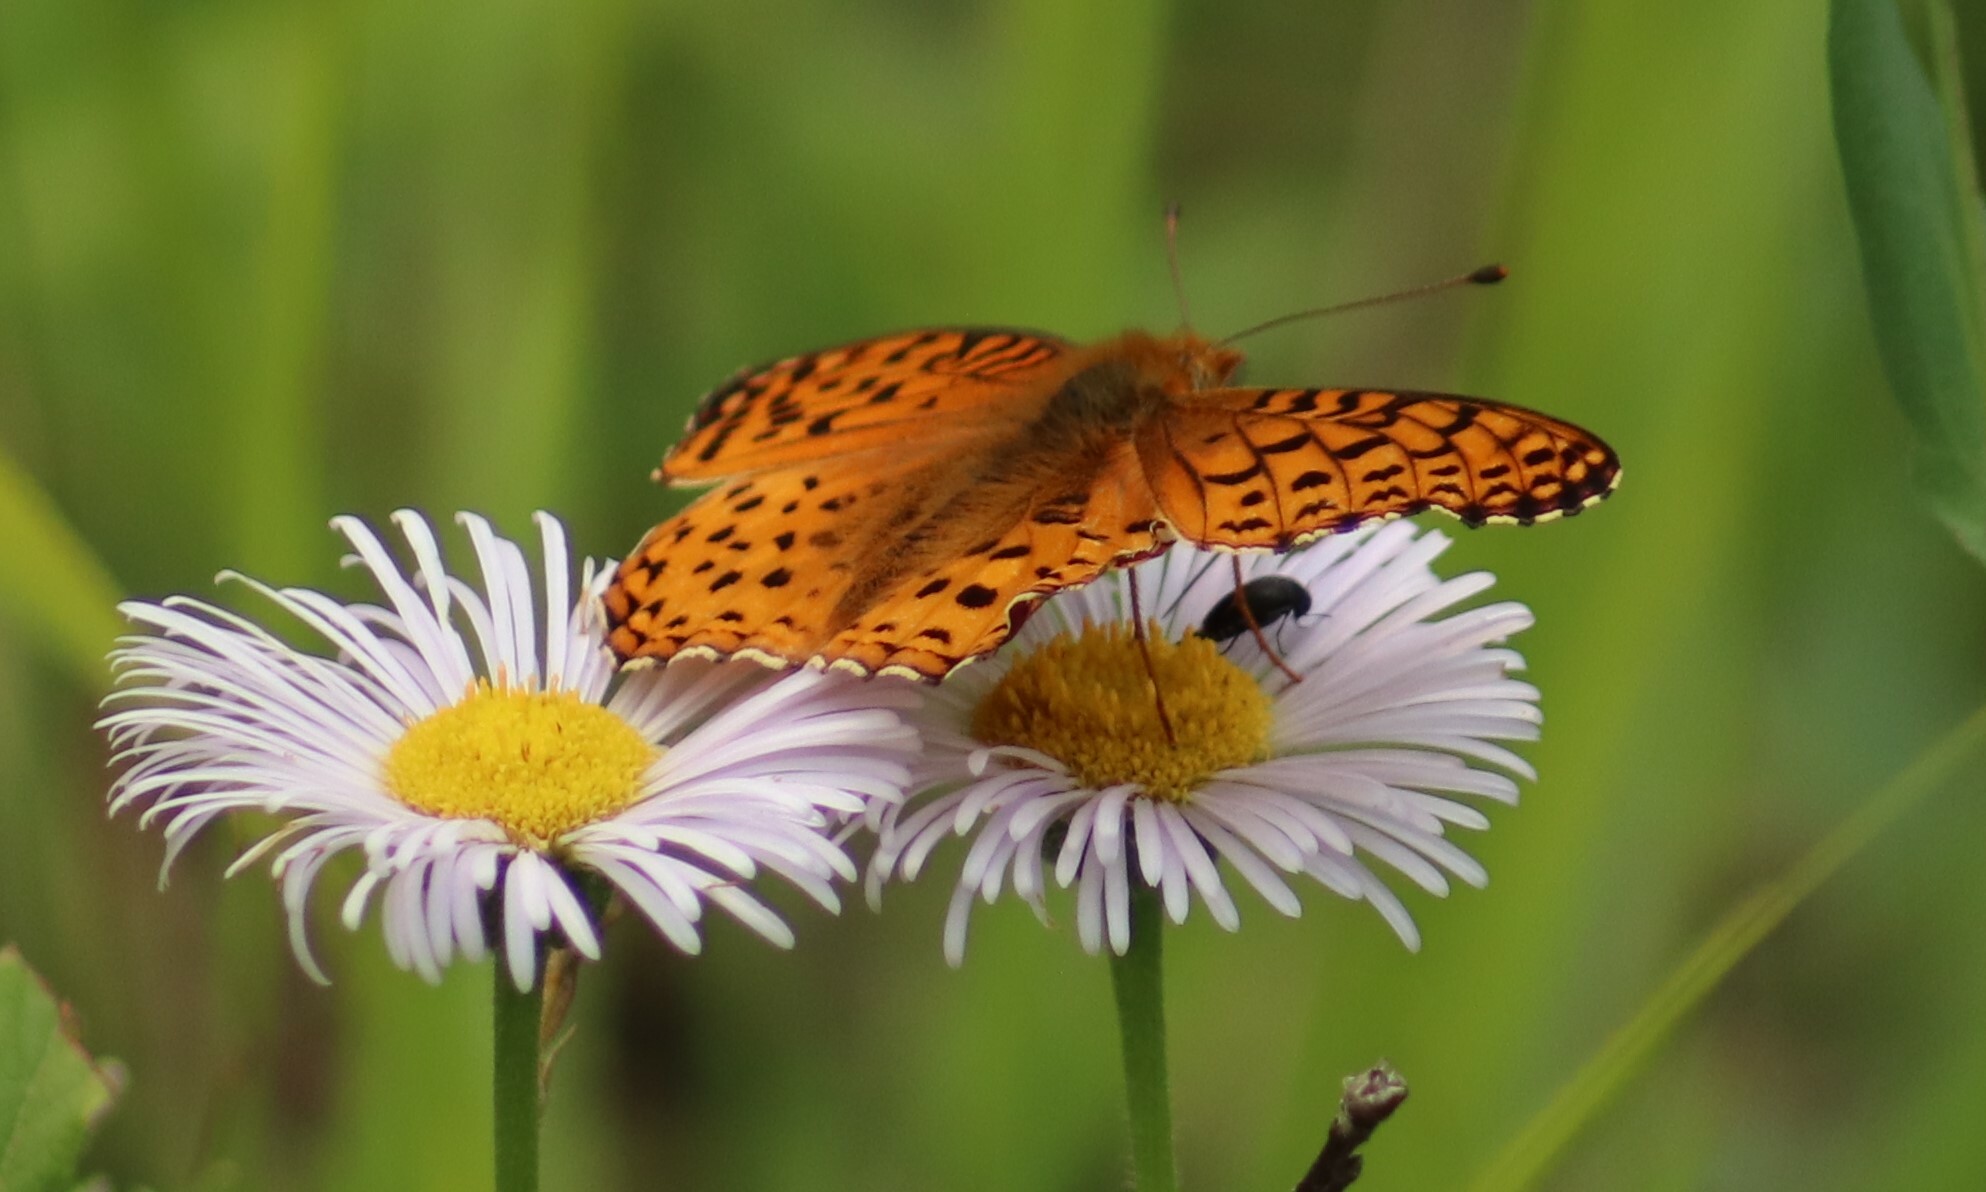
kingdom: Animalia
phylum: Arthropoda
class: Insecta
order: Lepidoptera
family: Nymphalidae
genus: Speyeria
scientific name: Speyeria atlantis
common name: Atlantis fritillary
